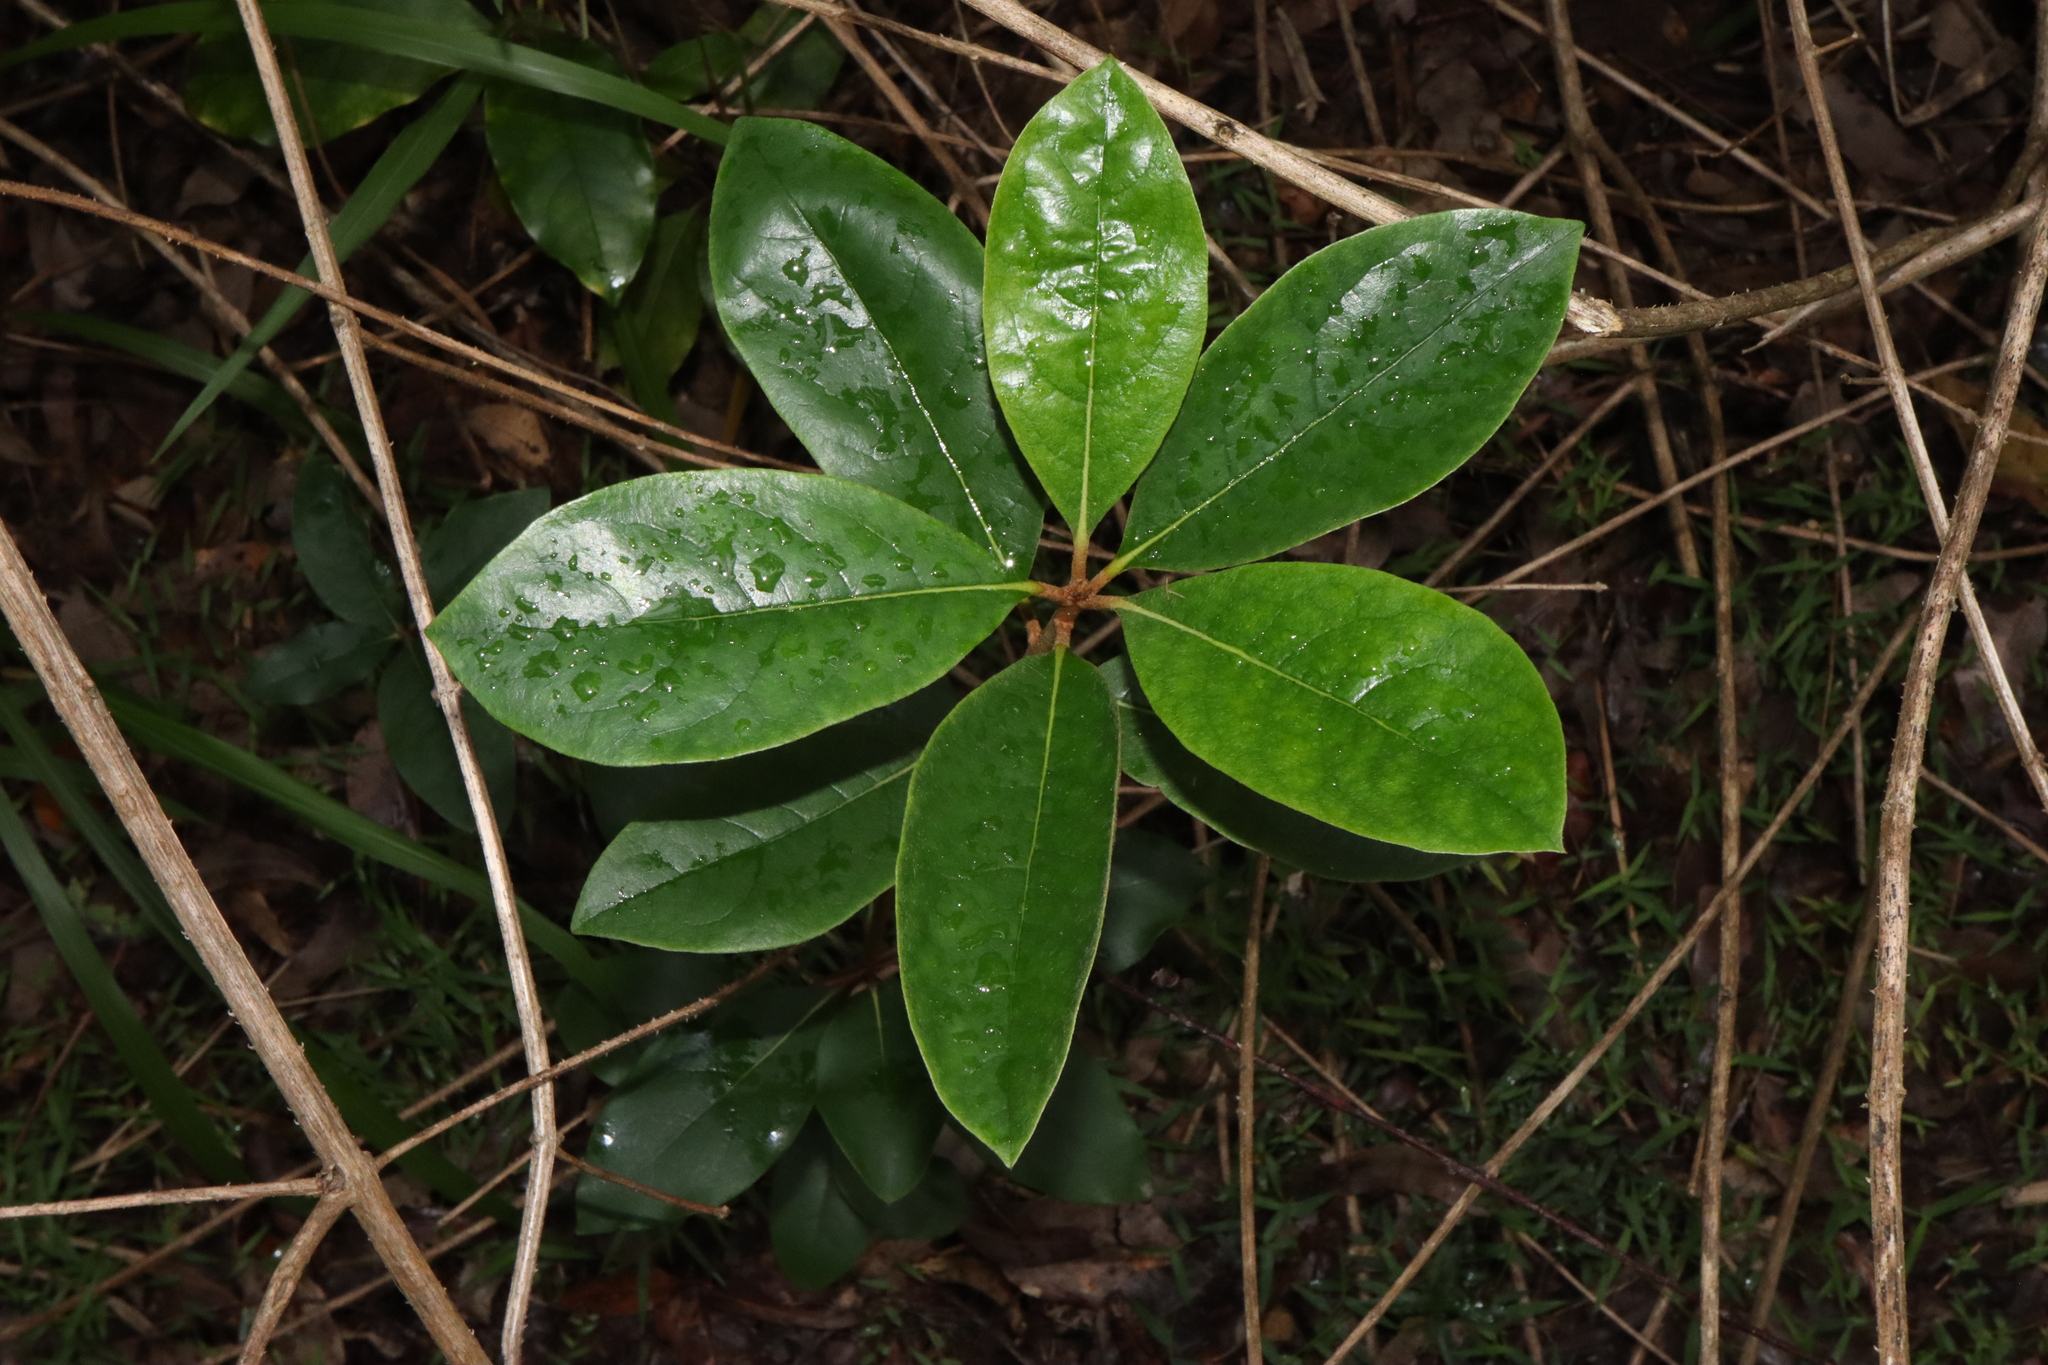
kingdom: Plantae
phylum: Tracheophyta
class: Magnoliopsida
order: Apiales
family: Pittosporaceae
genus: Pittosporum
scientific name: Pittosporum revolutum
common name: Brisbane-laurel
